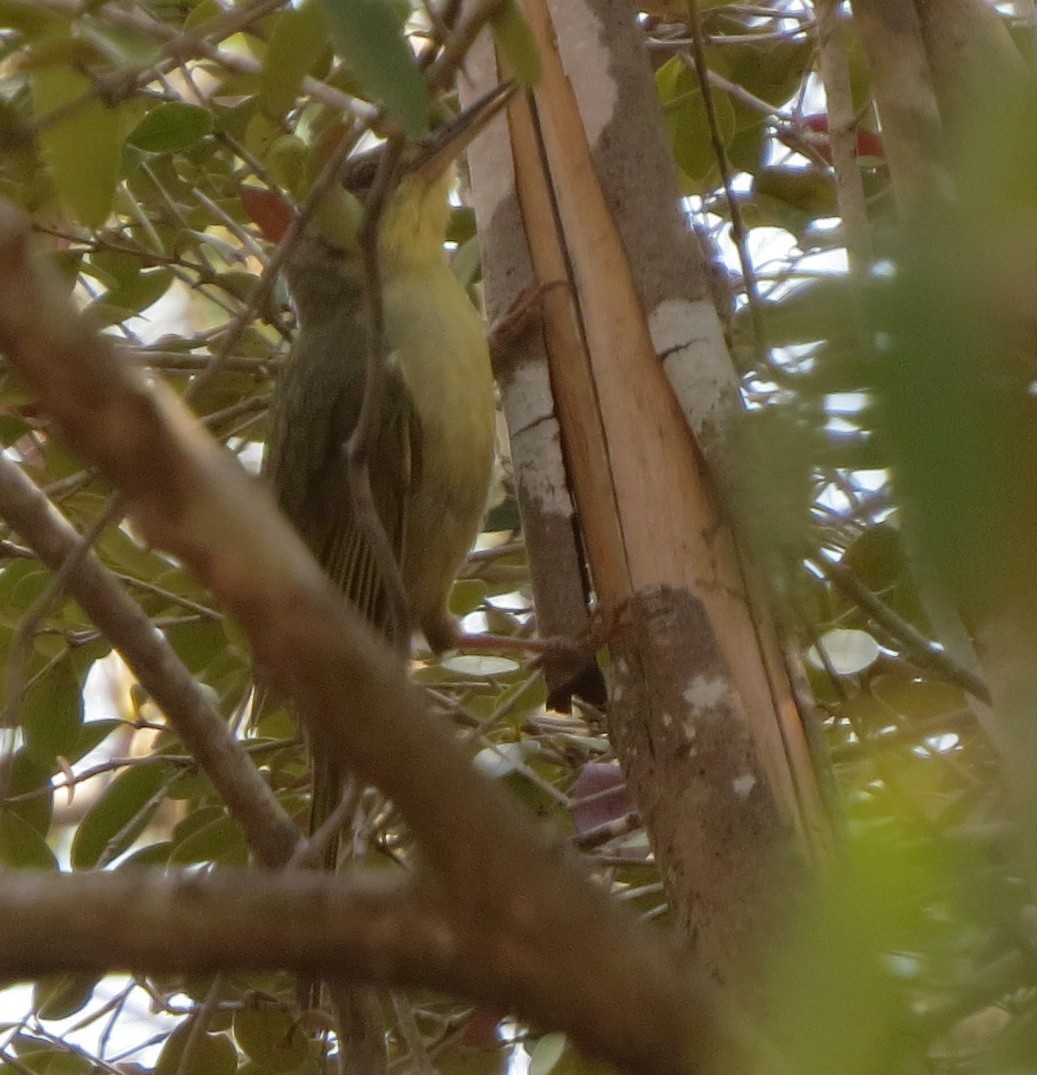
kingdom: Animalia
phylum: Chordata
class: Aves
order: Passeriformes
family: Bernieridae
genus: Bernieria
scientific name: Bernieria madagascariensis
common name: Long-billed bernieria
